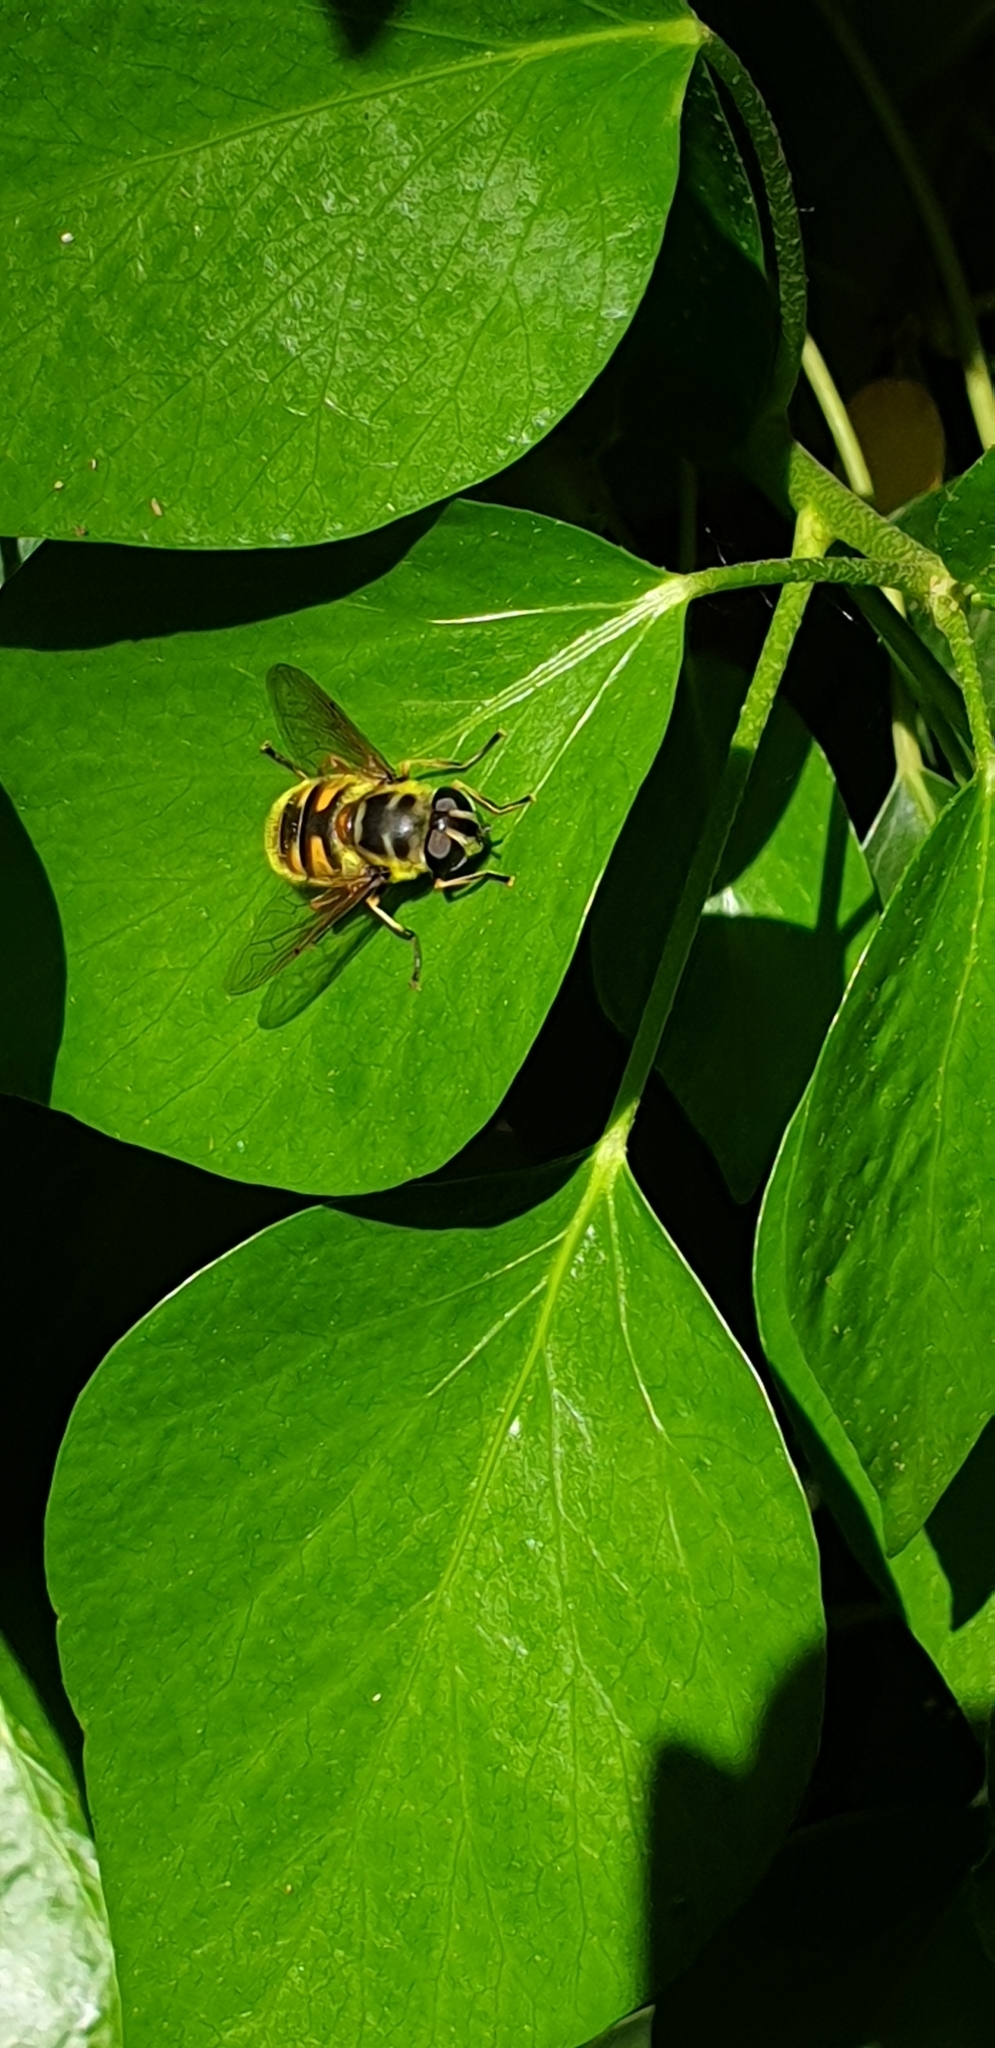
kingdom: Animalia
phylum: Arthropoda
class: Insecta
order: Diptera
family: Syrphidae
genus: Myathropa
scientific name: Myathropa florea
